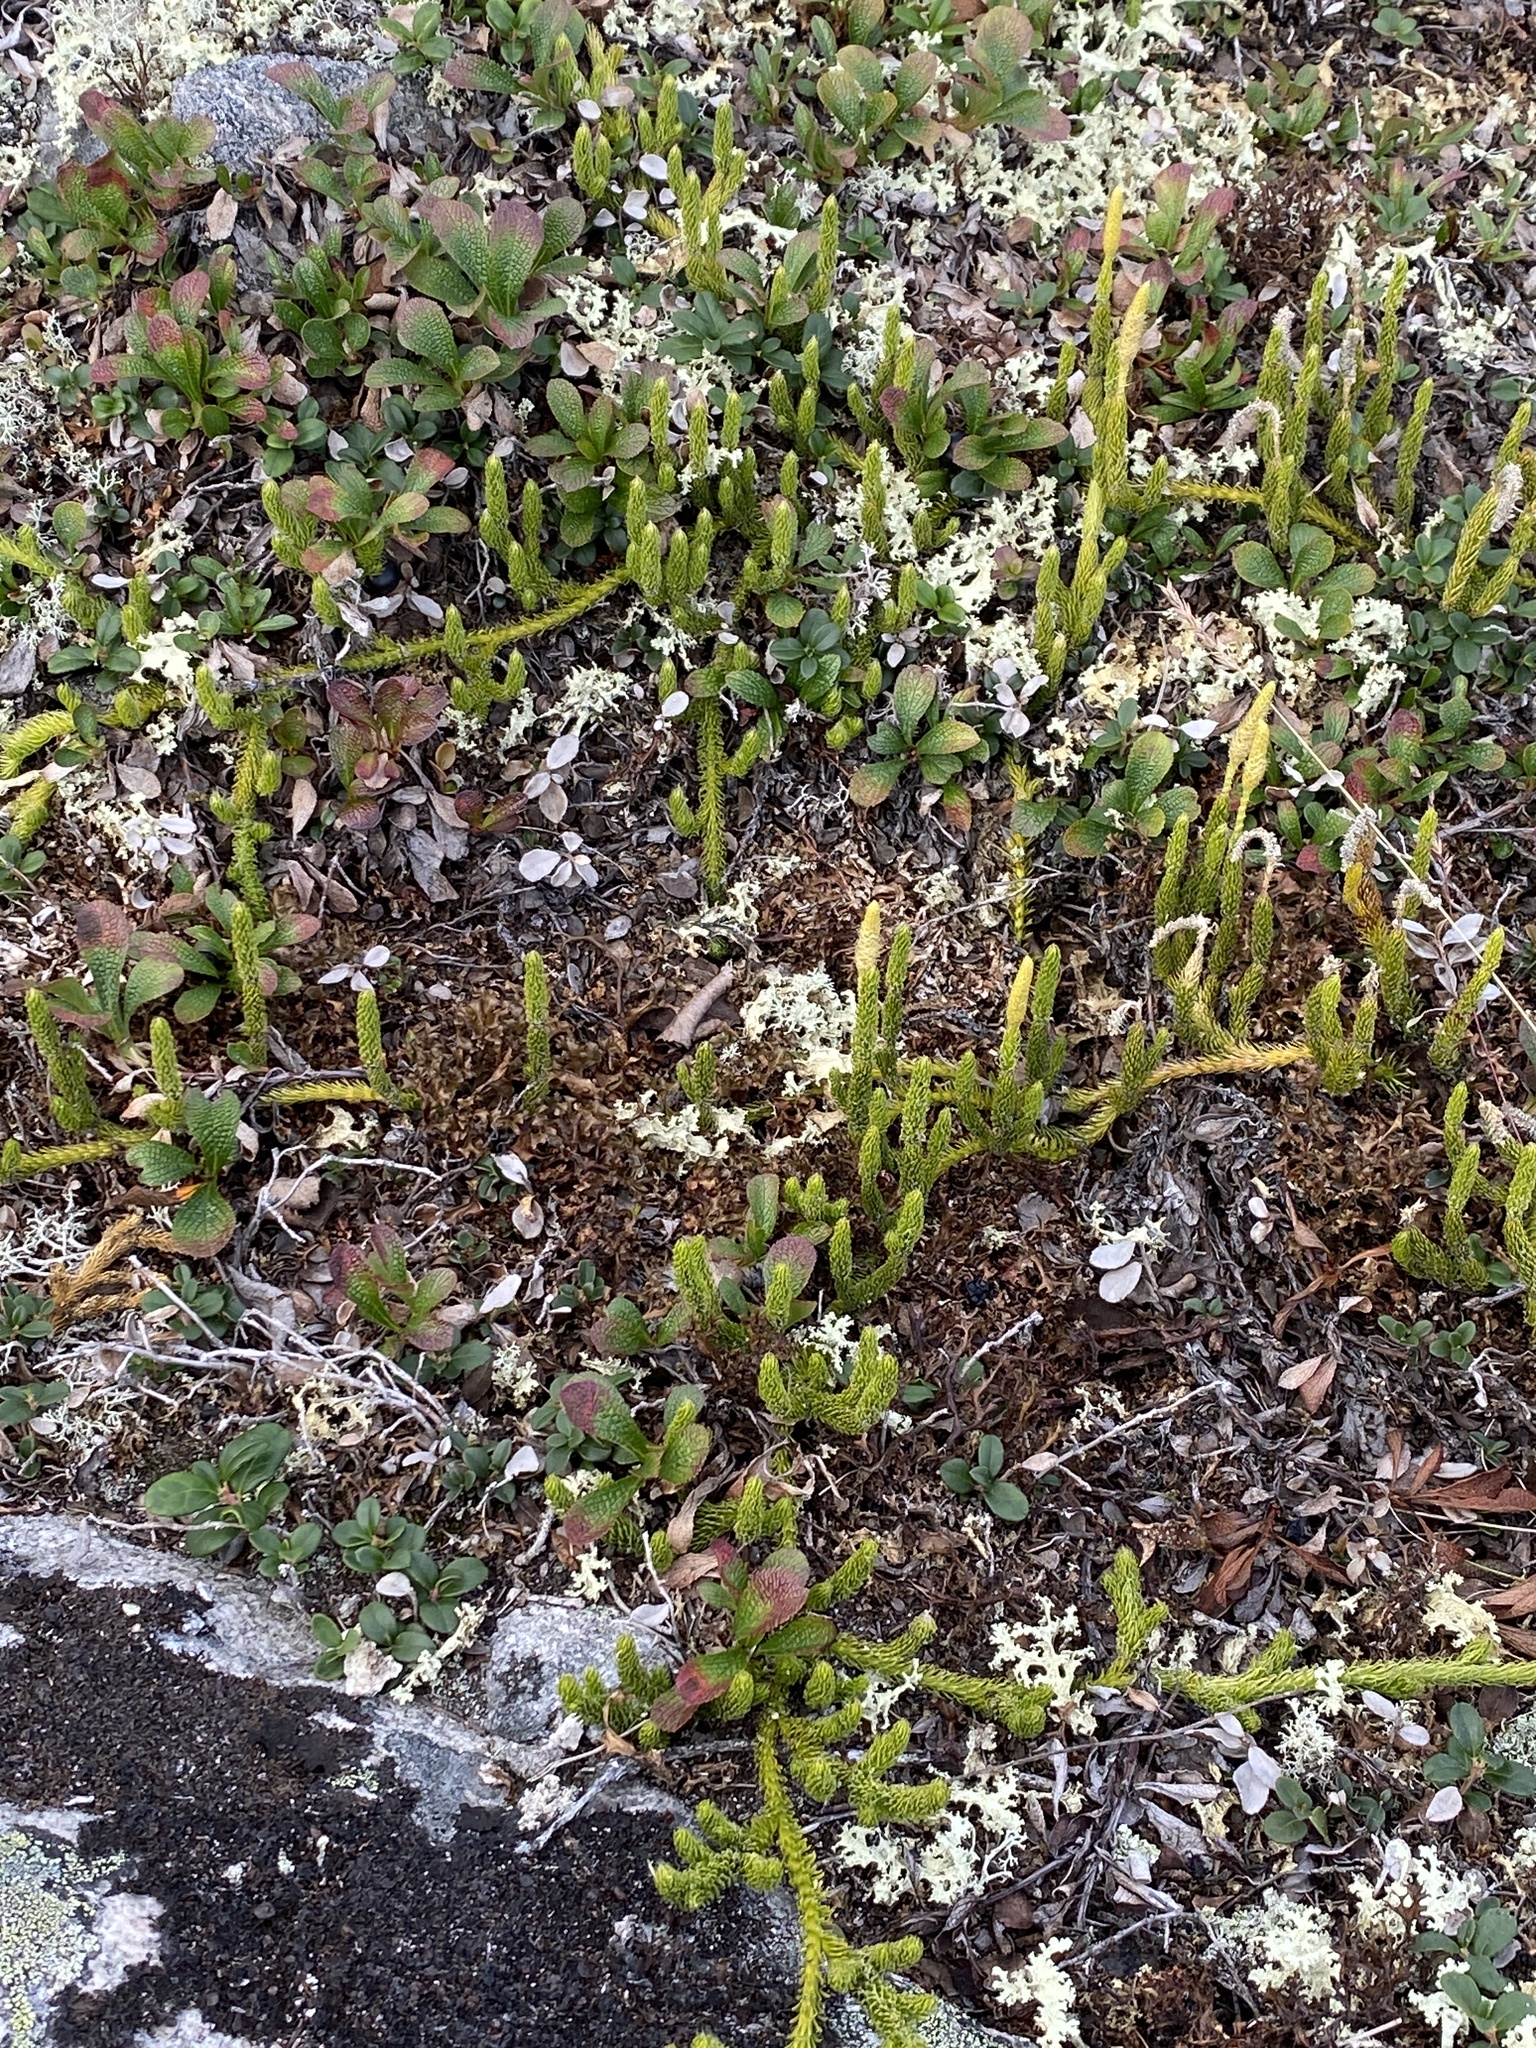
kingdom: Plantae
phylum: Tracheophyta
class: Lycopodiopsida
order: Lycopodiales
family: Lycopodiaceae
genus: Lycopodium
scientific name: Lycopodium lagopus
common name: One-cone clubmoss
